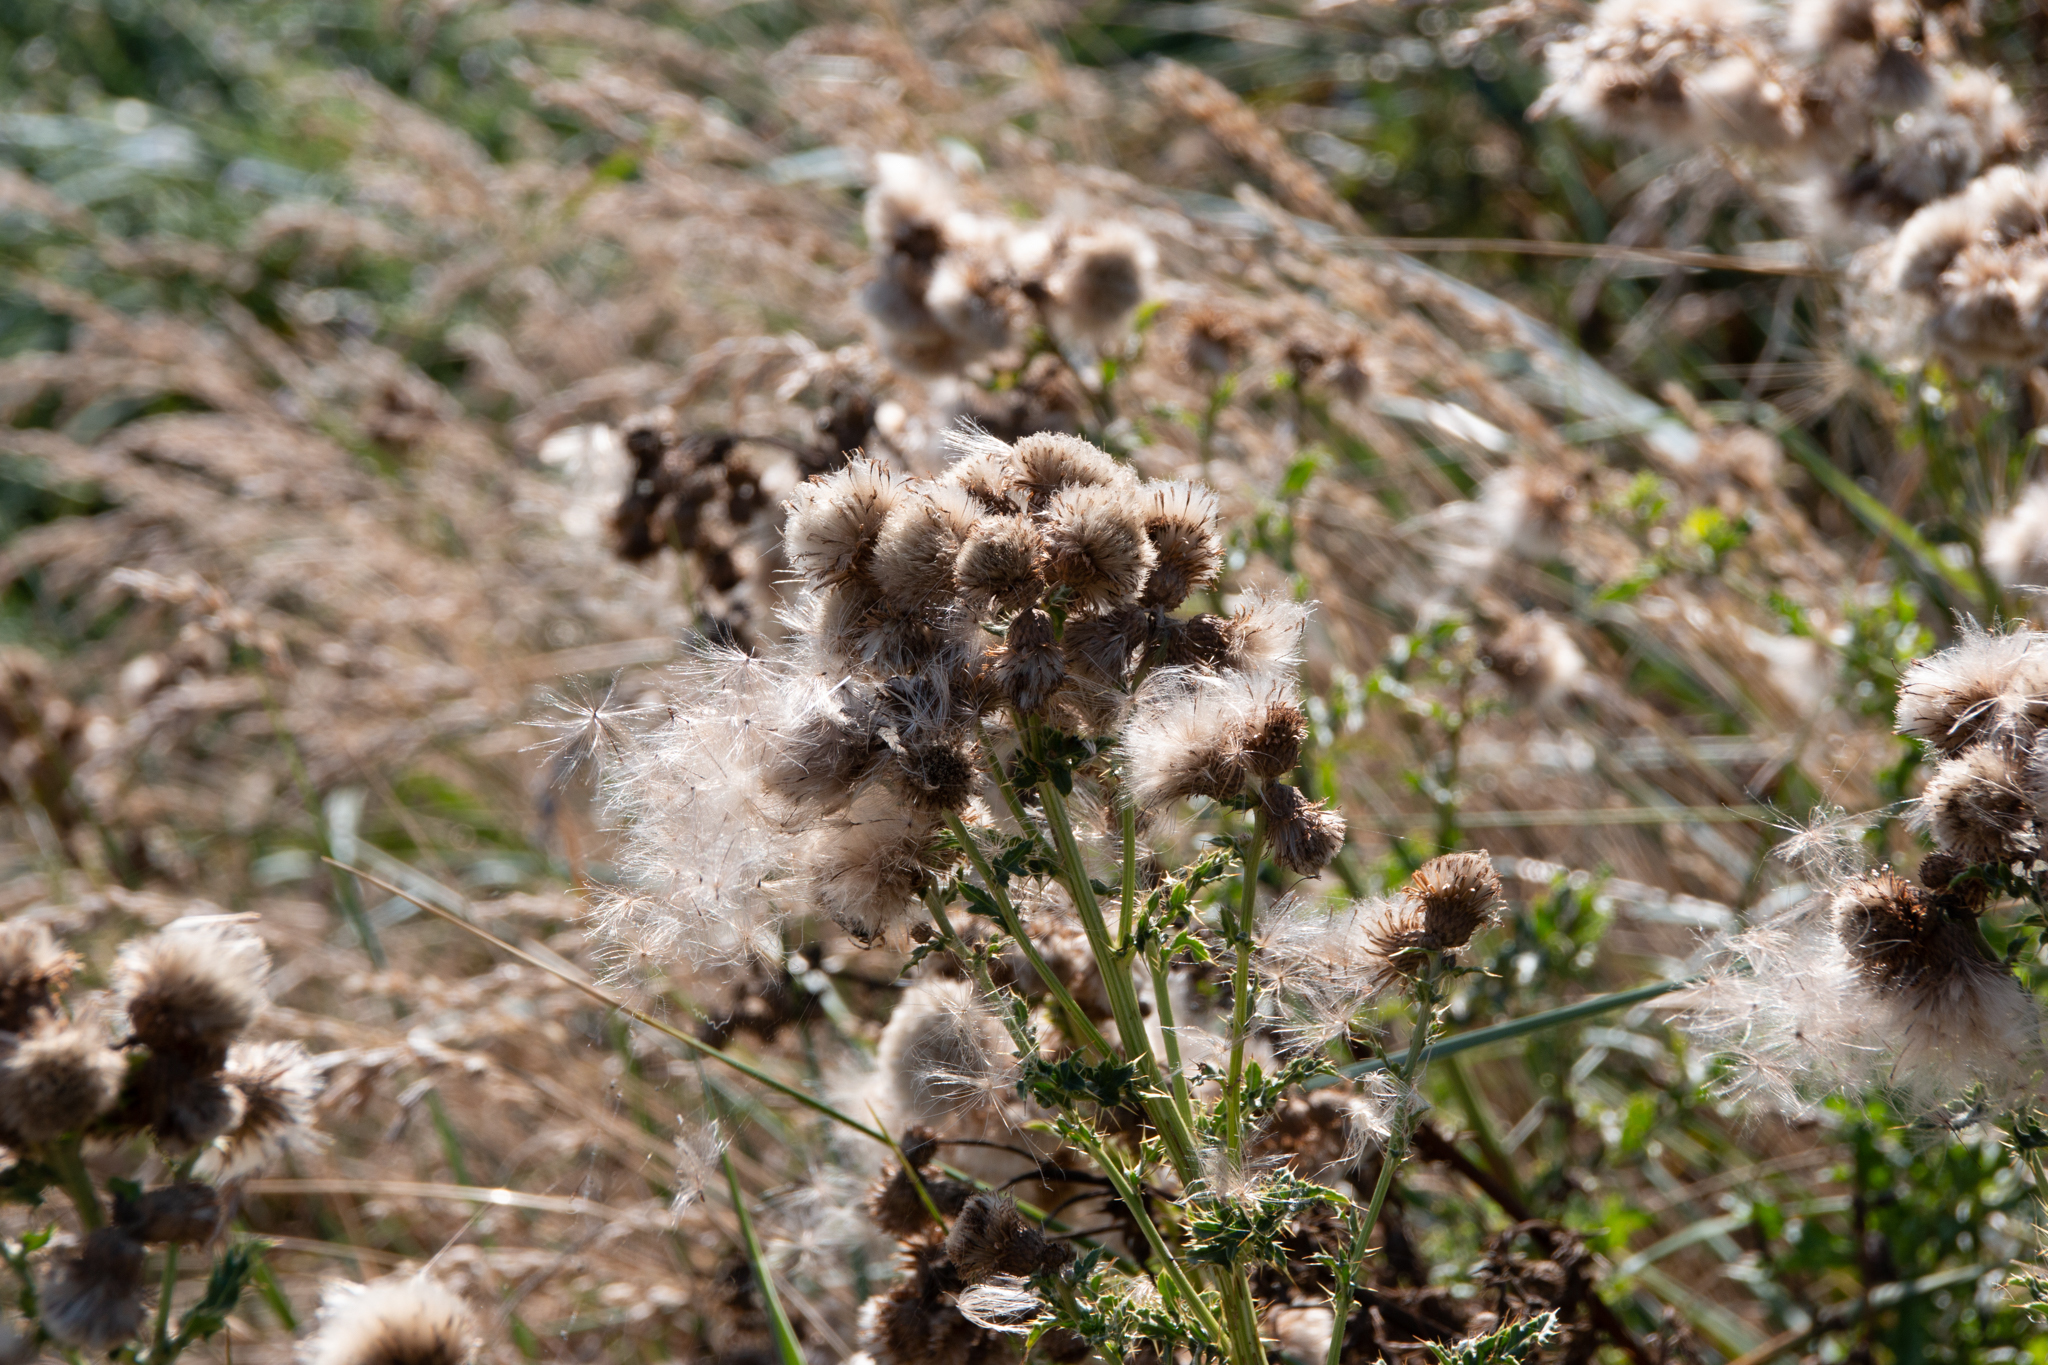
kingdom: Plantae
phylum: Tracheophyta
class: Magnoliopsida
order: Asterales
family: Asteraceae
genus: Cirsium
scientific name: Cirsium arvense
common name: Creeping thistle
